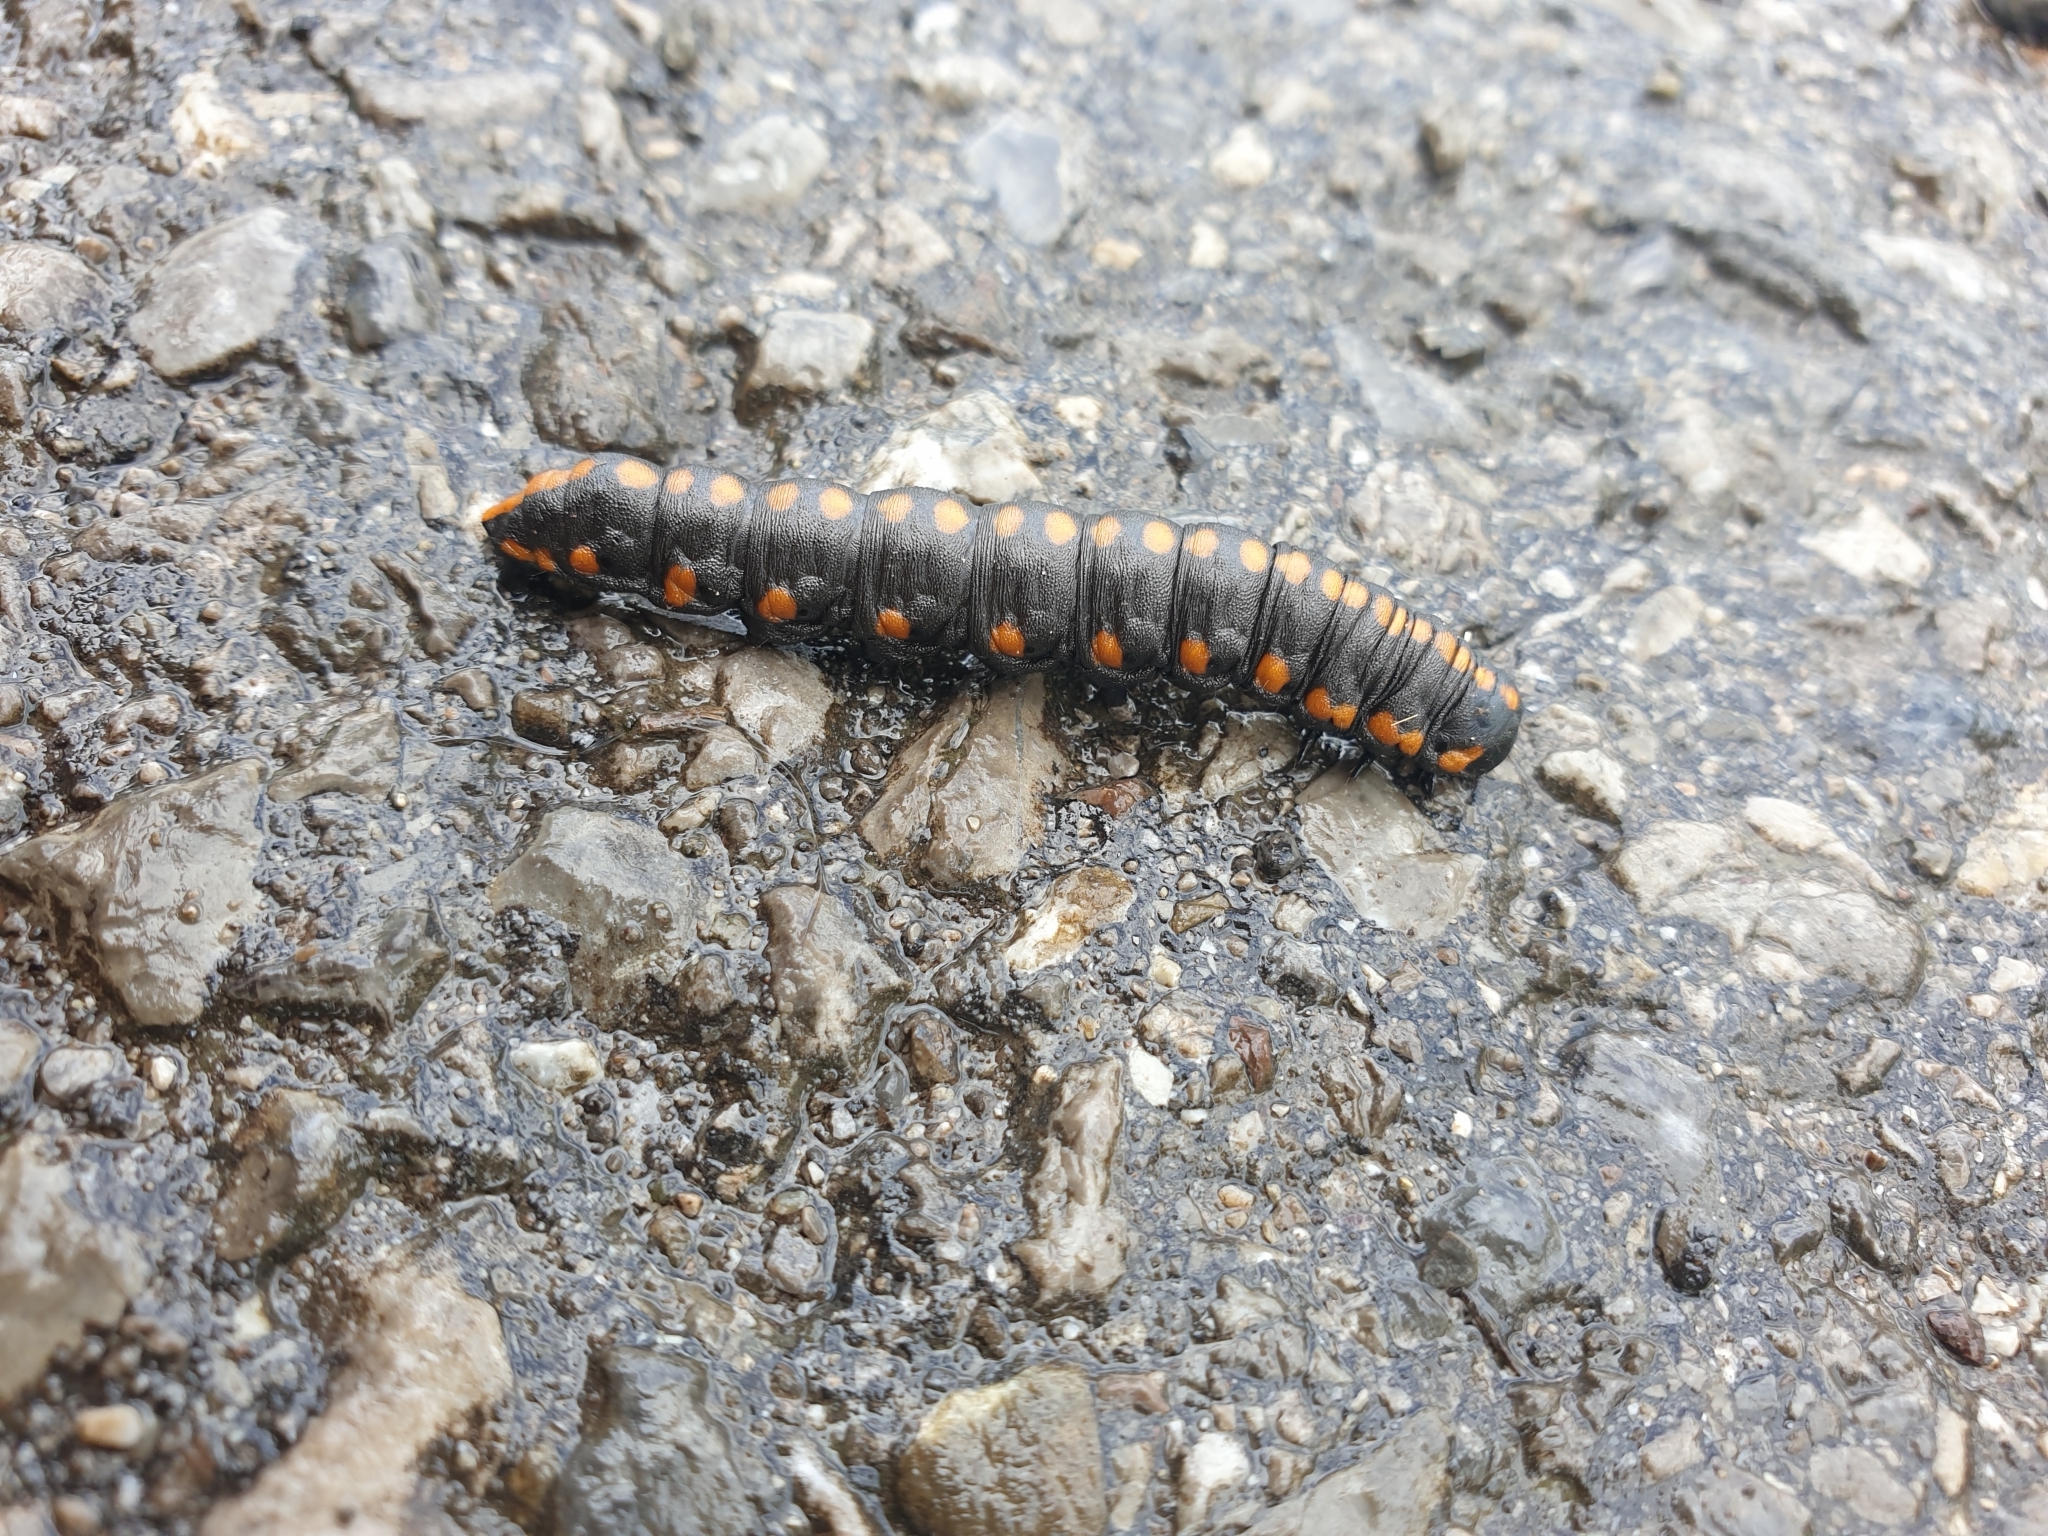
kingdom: Animalia
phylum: Arthropoda
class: Insecta
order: Lepidoptera
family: Noctuidae
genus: Cucullia
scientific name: Cucullia lucifuga
